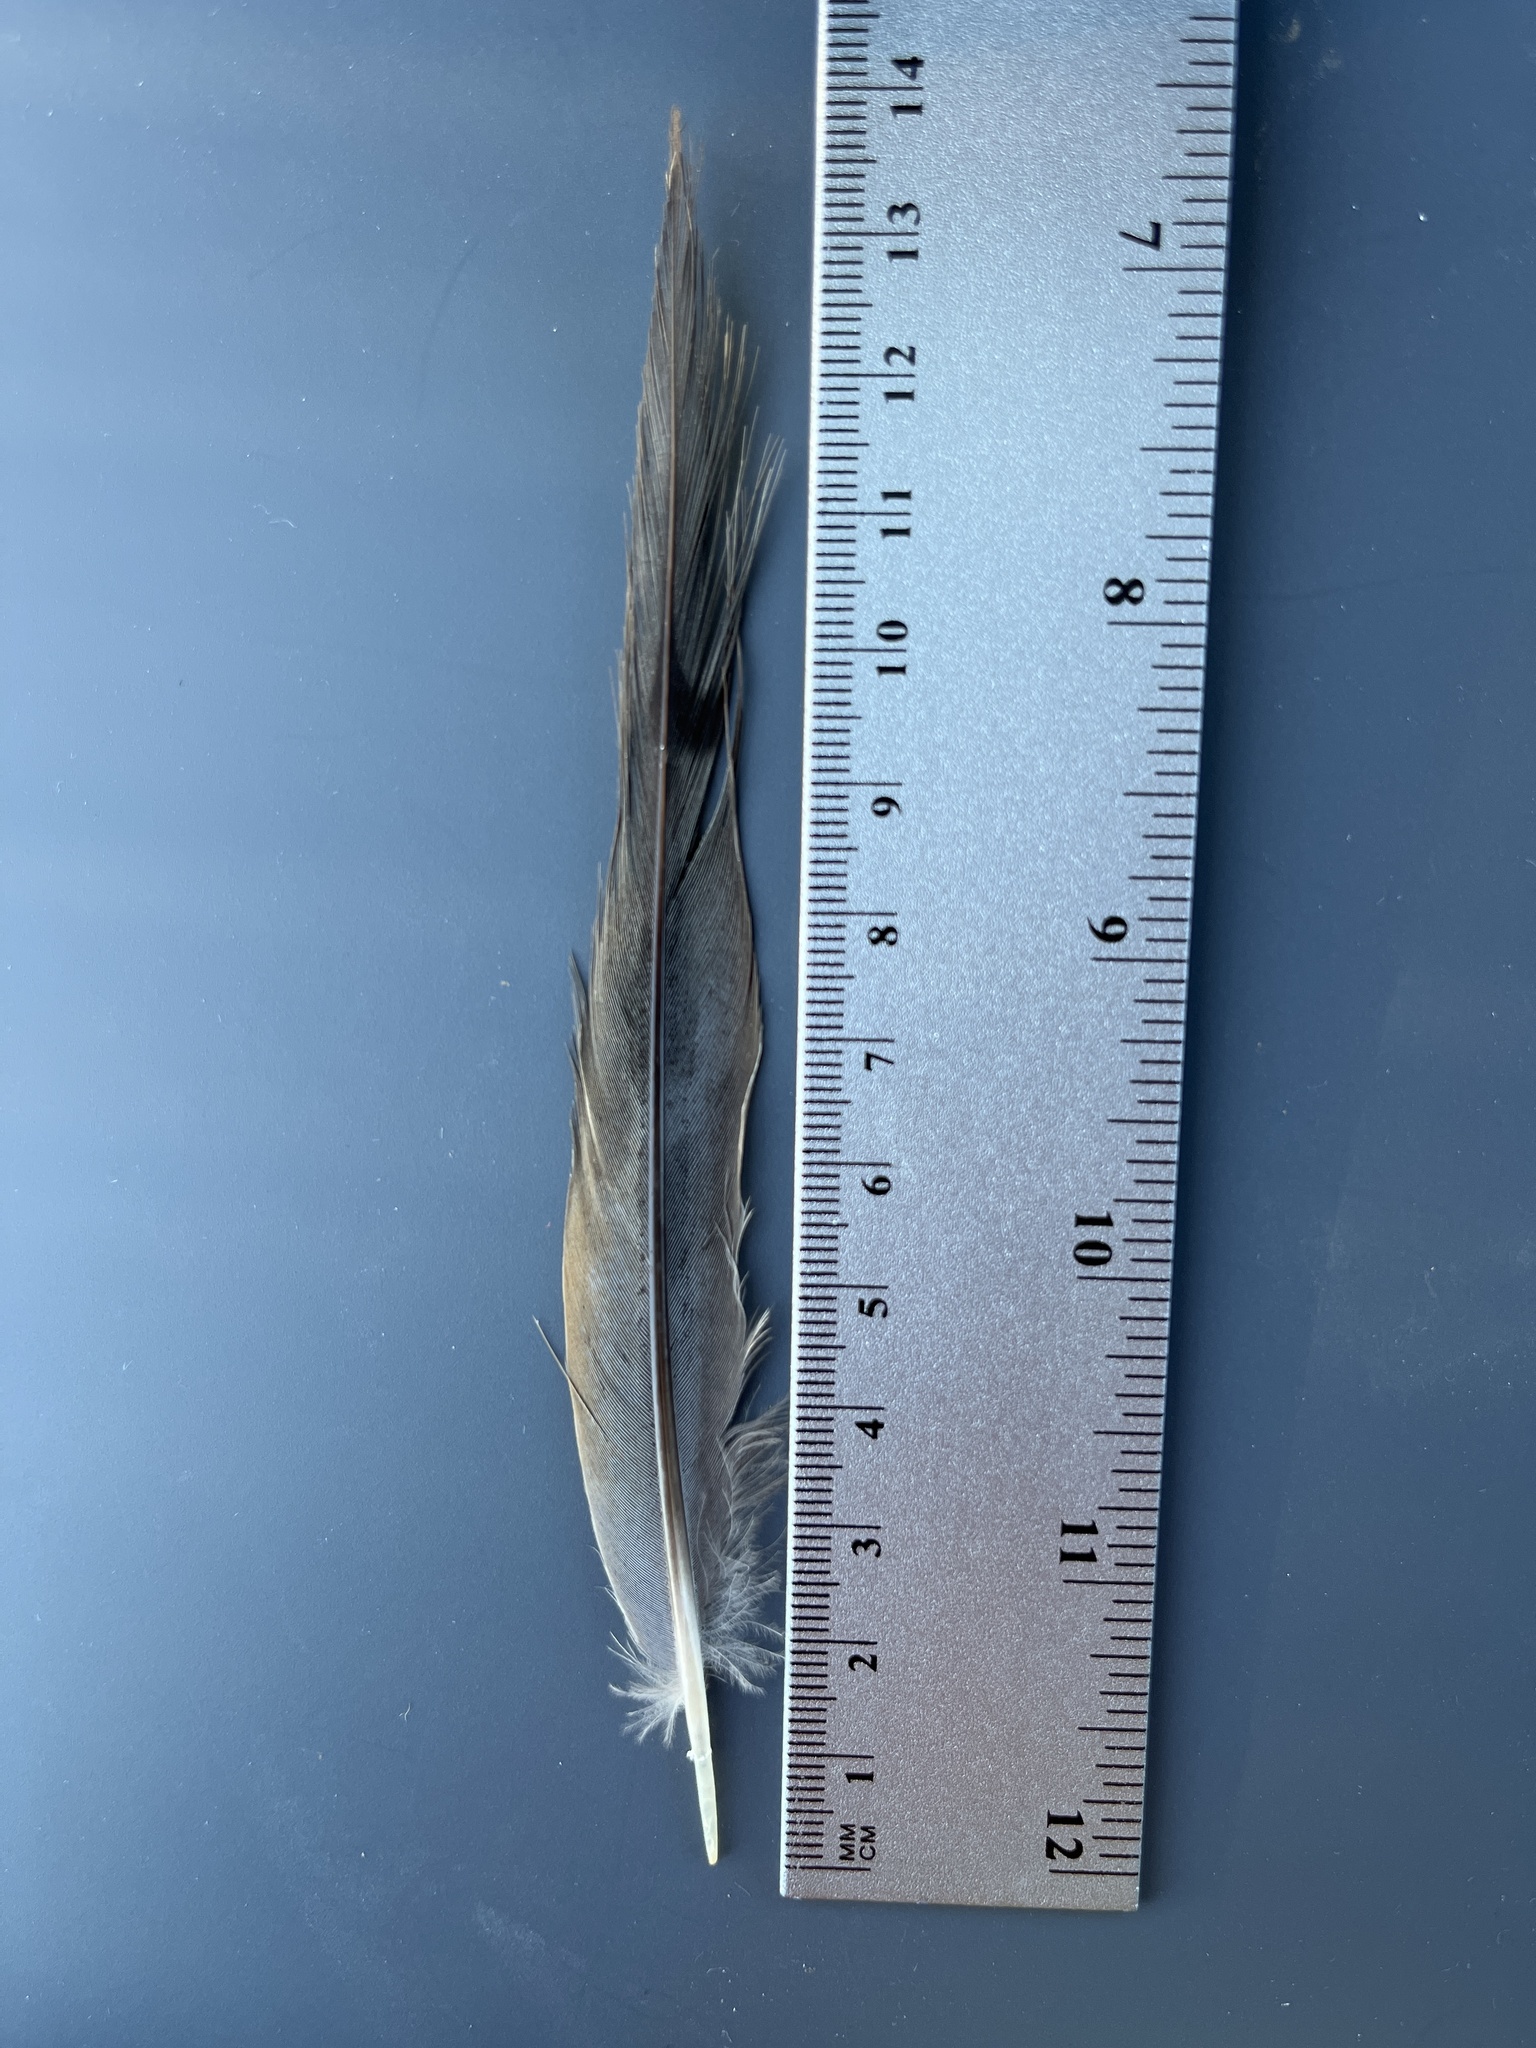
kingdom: Animalia
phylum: Chordata
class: Aves
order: Columbiformes
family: Columbidae
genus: Zenaida
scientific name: Zenaida macroura
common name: Mourning dove
